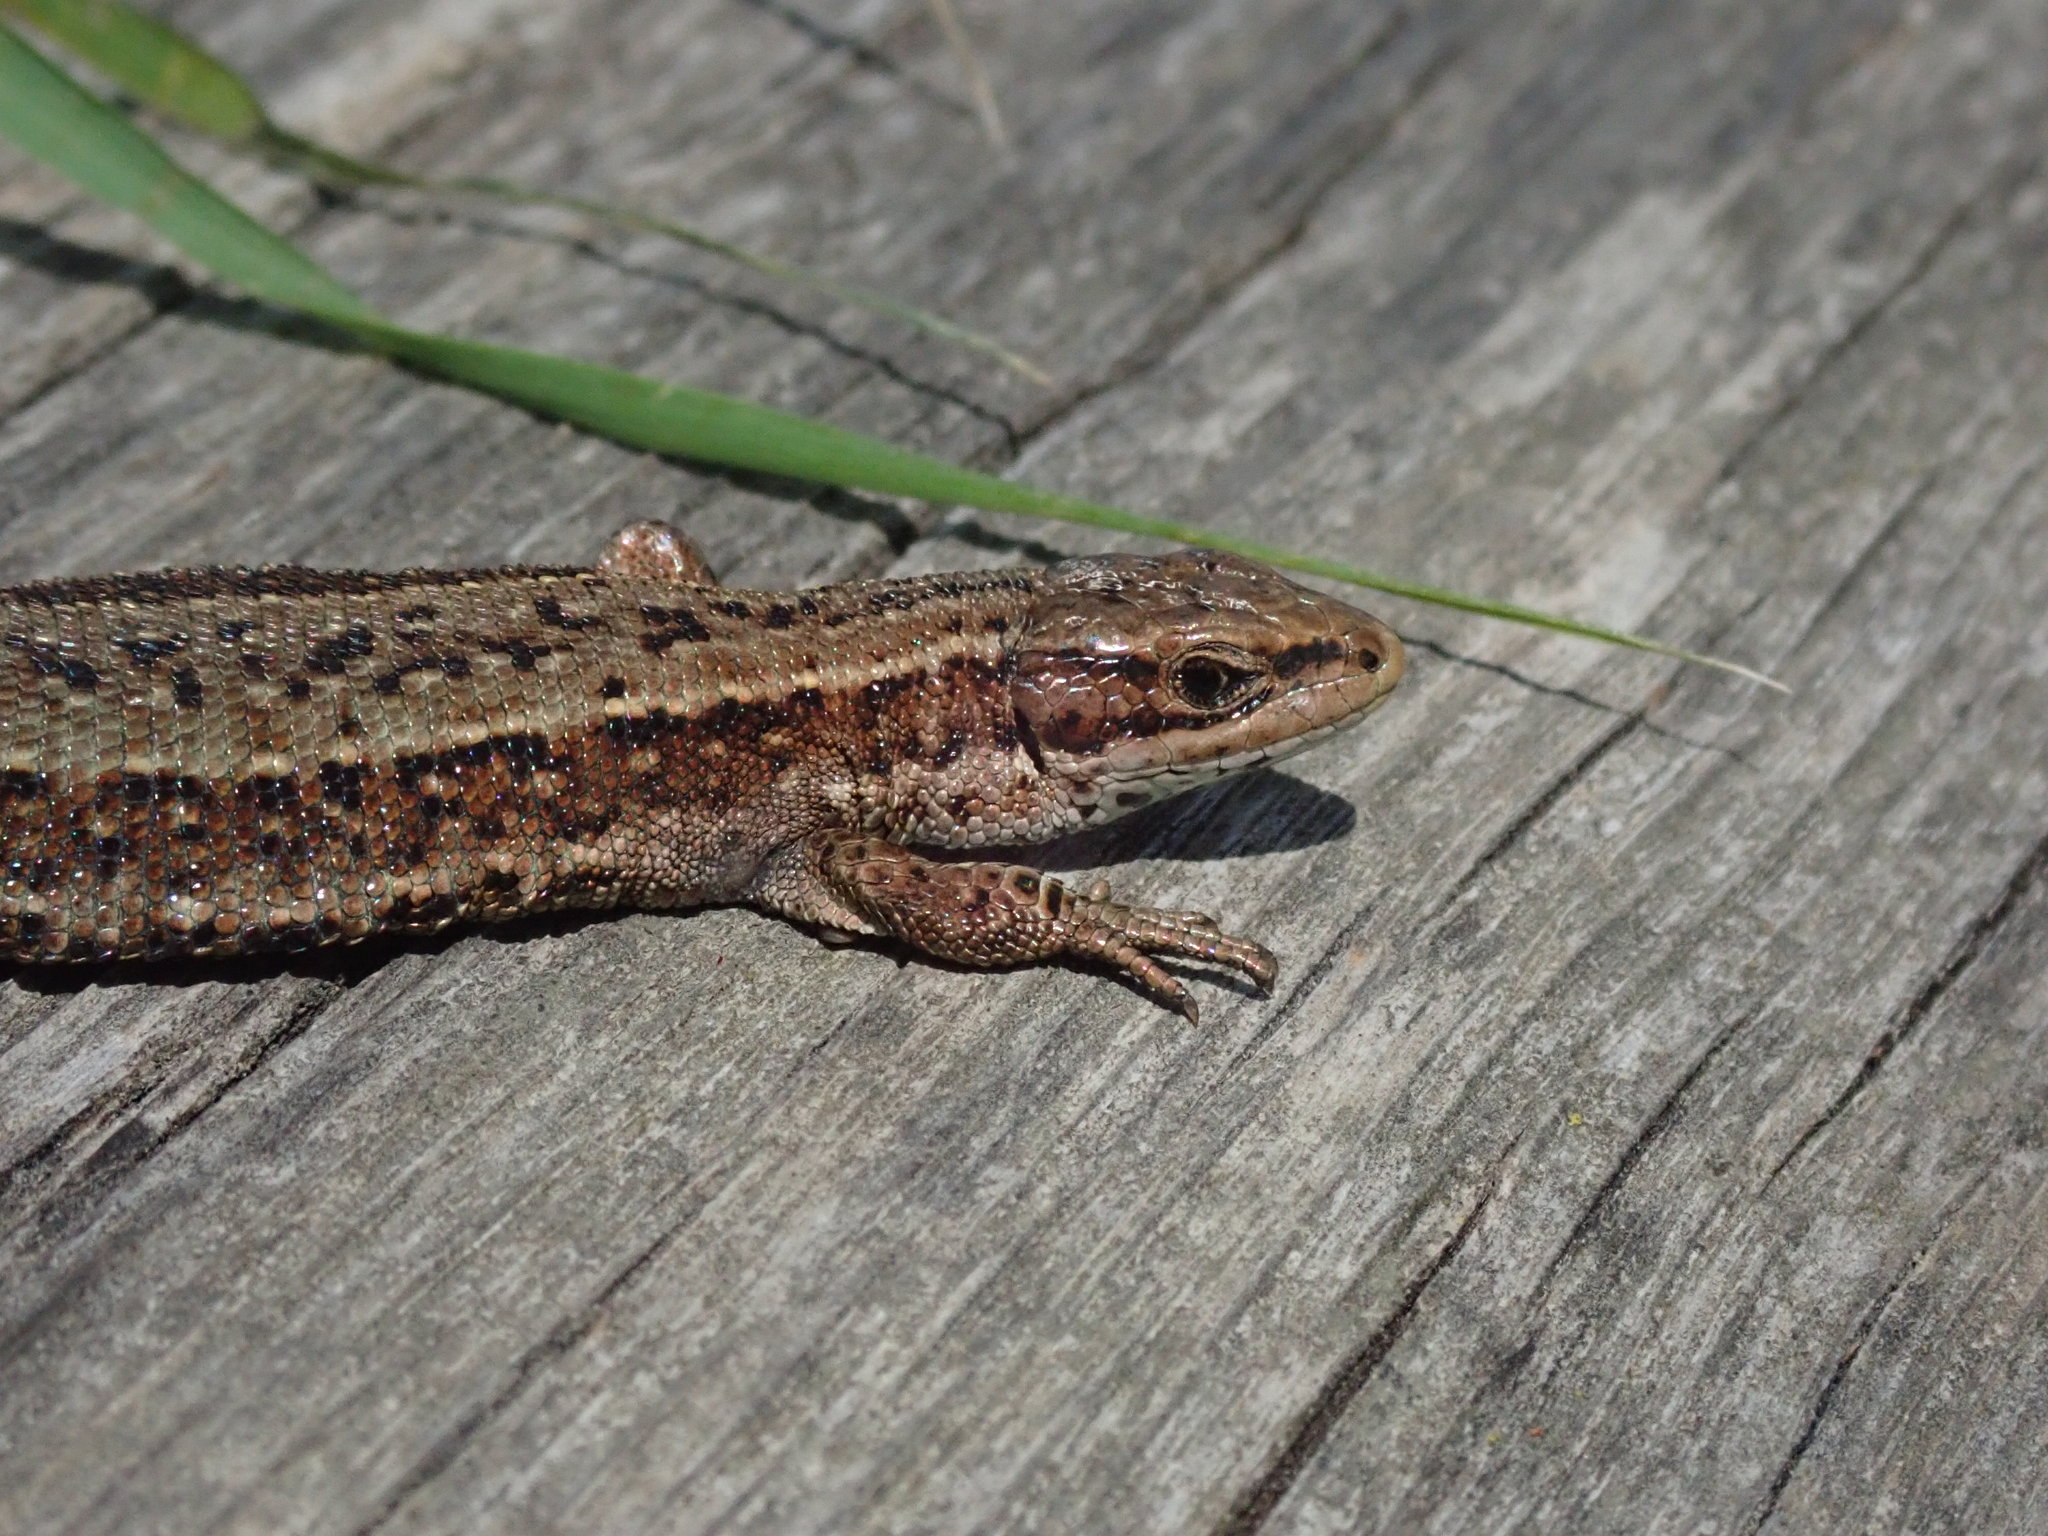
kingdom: Animalia
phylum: Chordata
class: Squamata
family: Lacertidae
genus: Zootoca
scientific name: Zootoca vivipara
